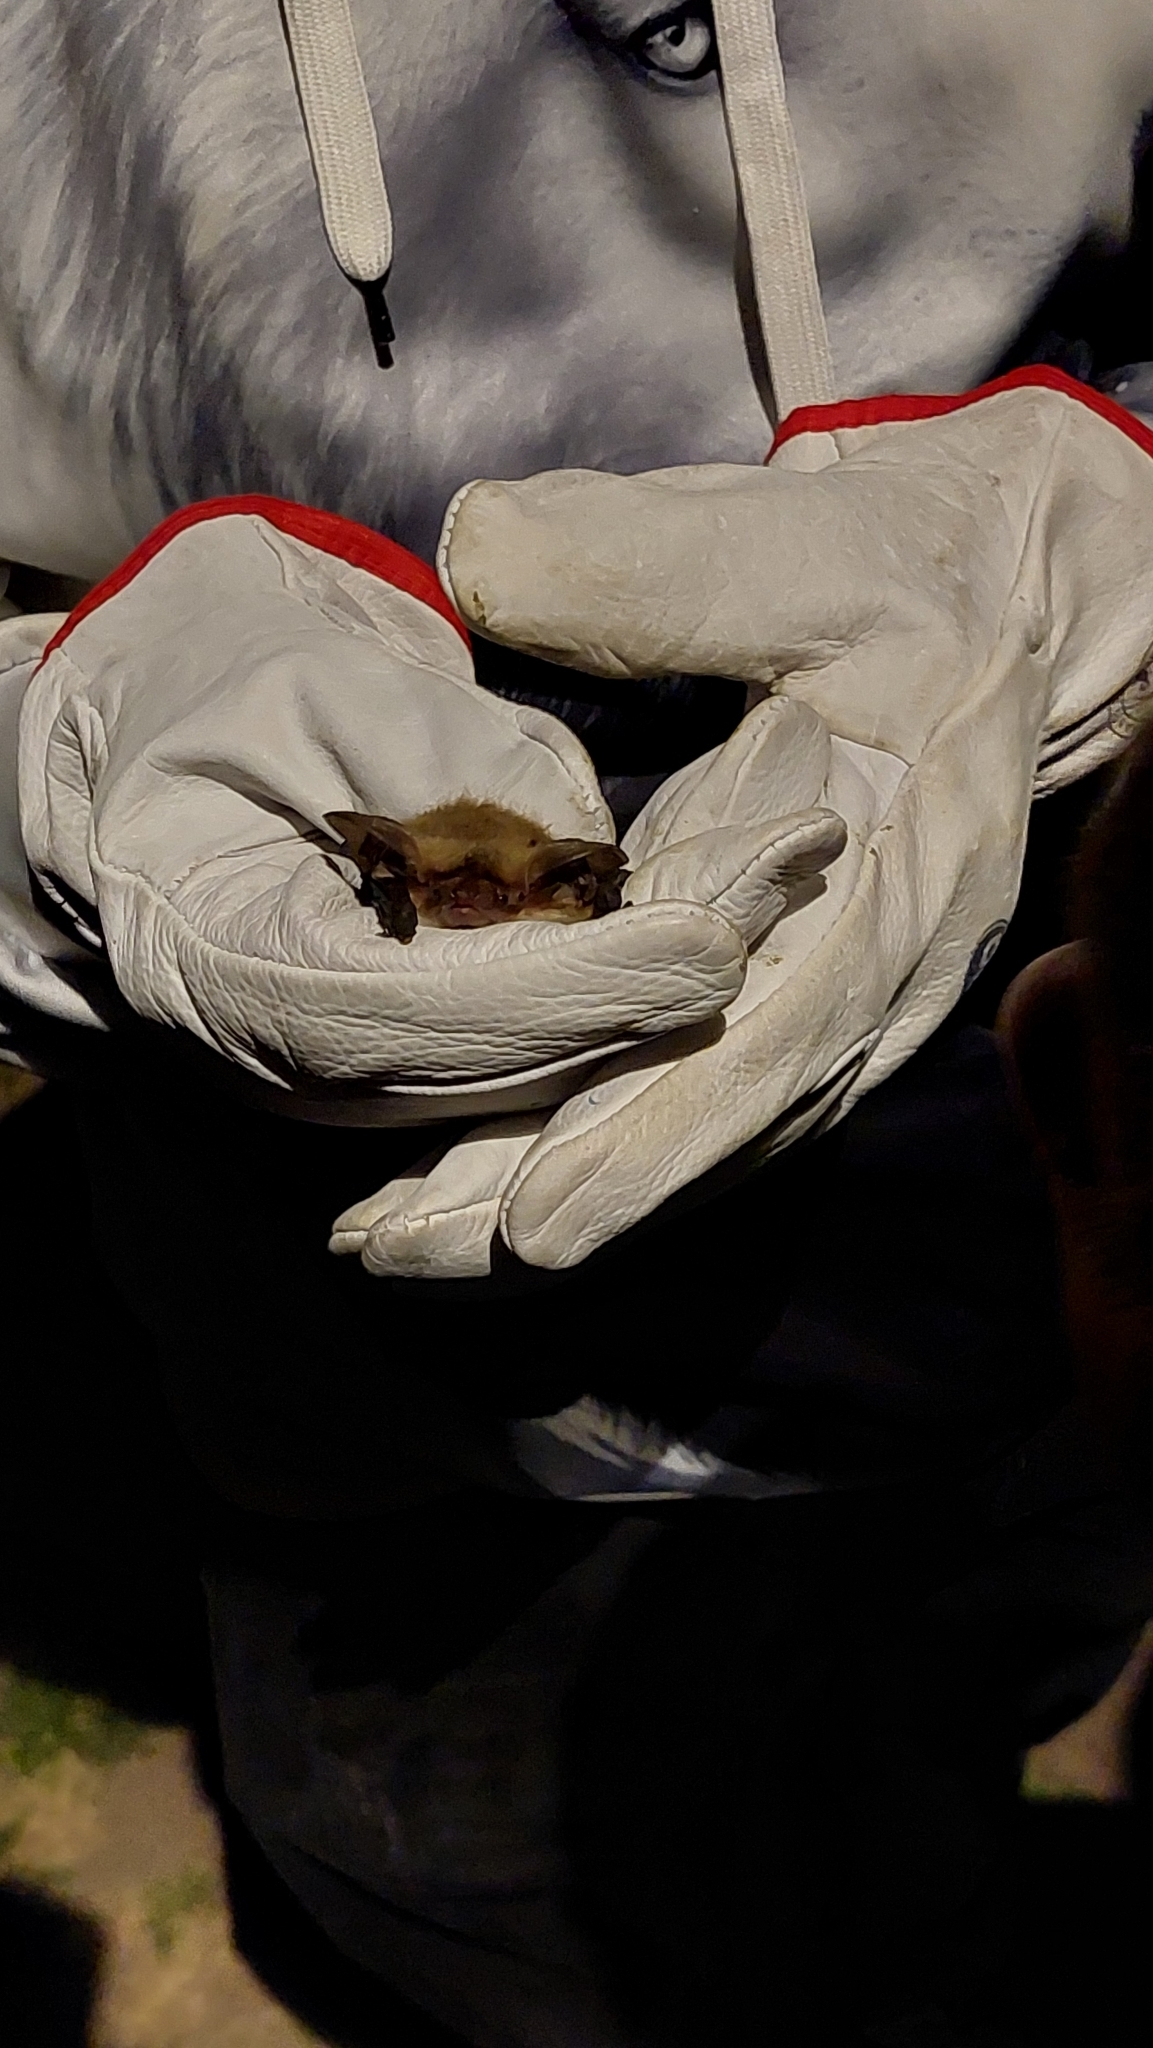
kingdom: Animalia
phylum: Chordata
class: Mammalia
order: Chiroptera
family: Vespertilionidae
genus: Histiotus
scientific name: Histiotus montanus
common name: Small big-eared brown bat
